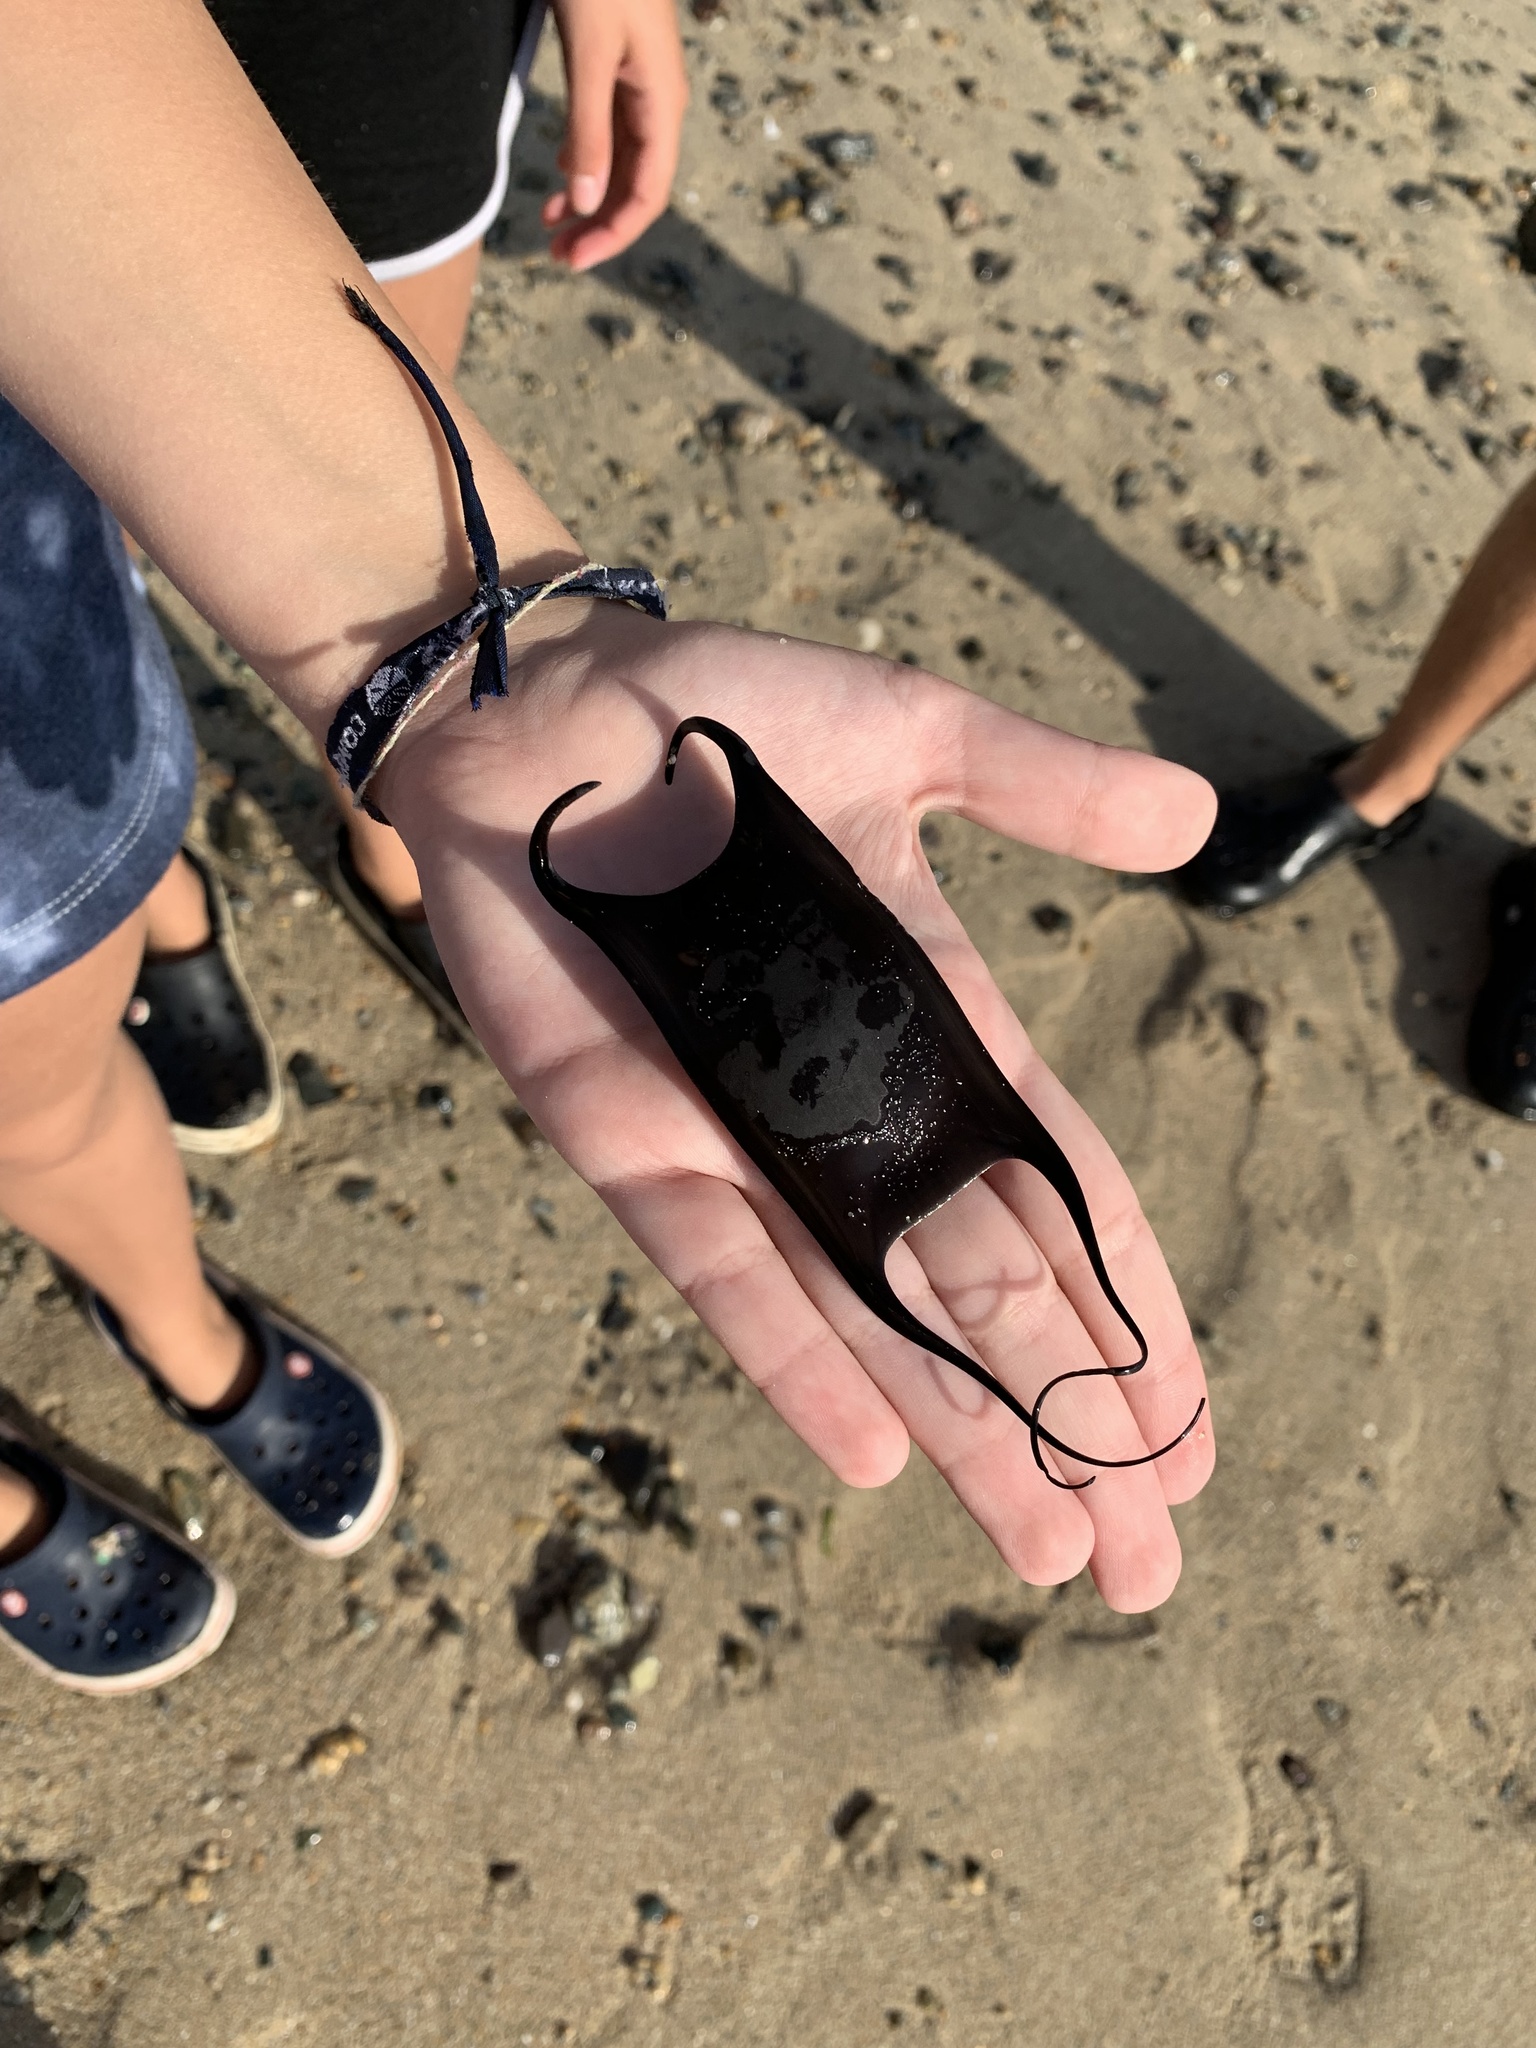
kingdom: Animalia
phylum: Chordata
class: Elasmobranchii
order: Rajiformes
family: Arhynchobatidae
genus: Sympterygia
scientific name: Sympterygia lima
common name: Filetail fanskate
